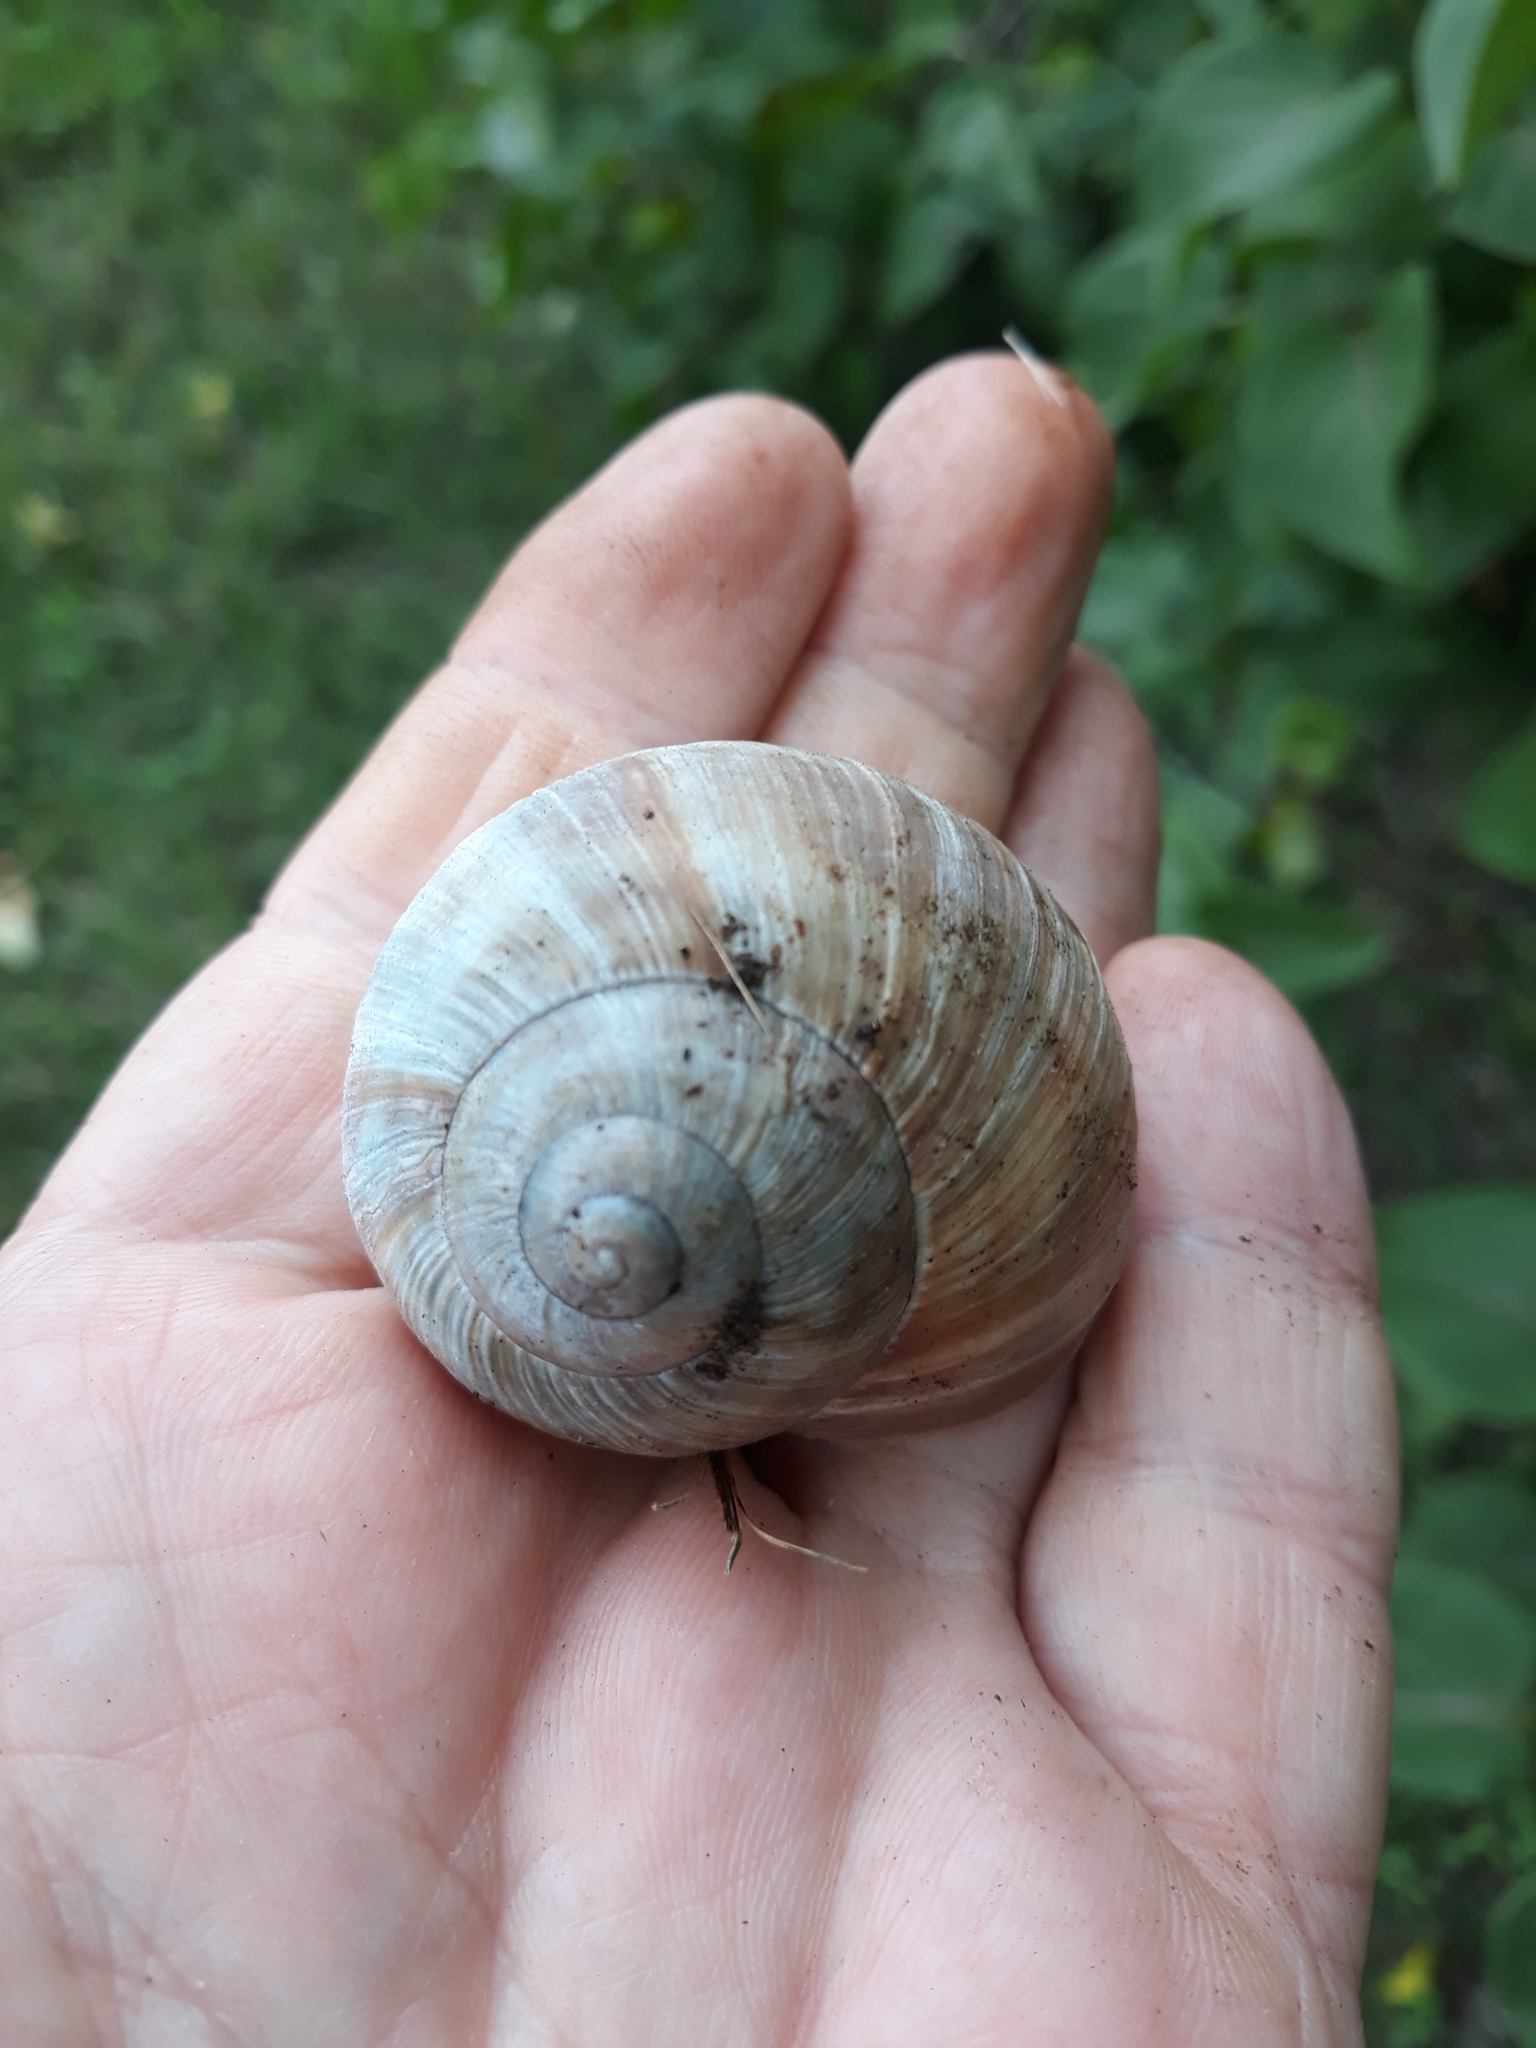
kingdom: Animalia
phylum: Mollusca
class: Gastropoda
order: Stylommatophora
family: Helicidae
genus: Helix
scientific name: Helix pomatia
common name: Roman snail
